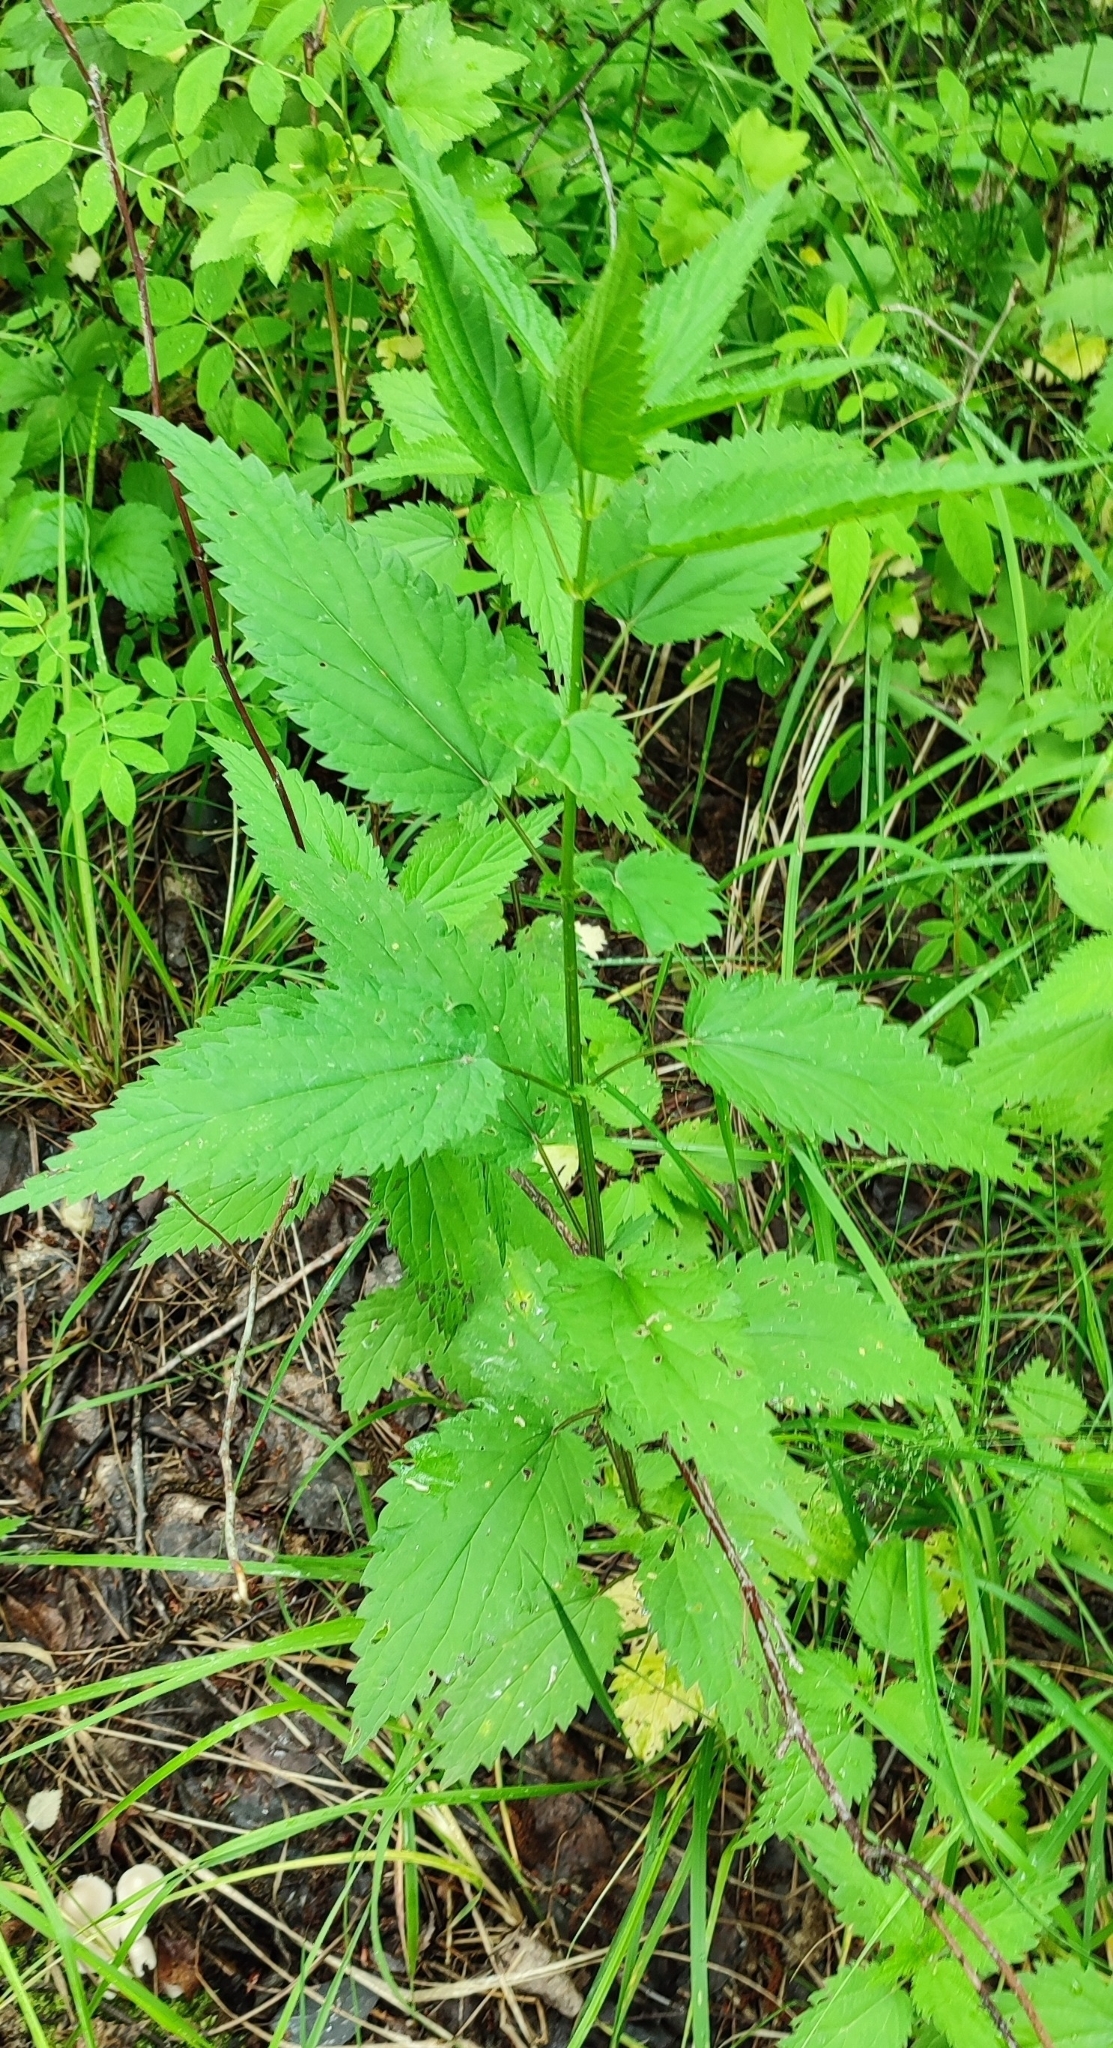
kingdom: Plantae
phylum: Tracheophyta
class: Magnoliopsida
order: Rosales
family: Urticaceae
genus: Urtica
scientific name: Urtica dioica
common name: Common nettle
